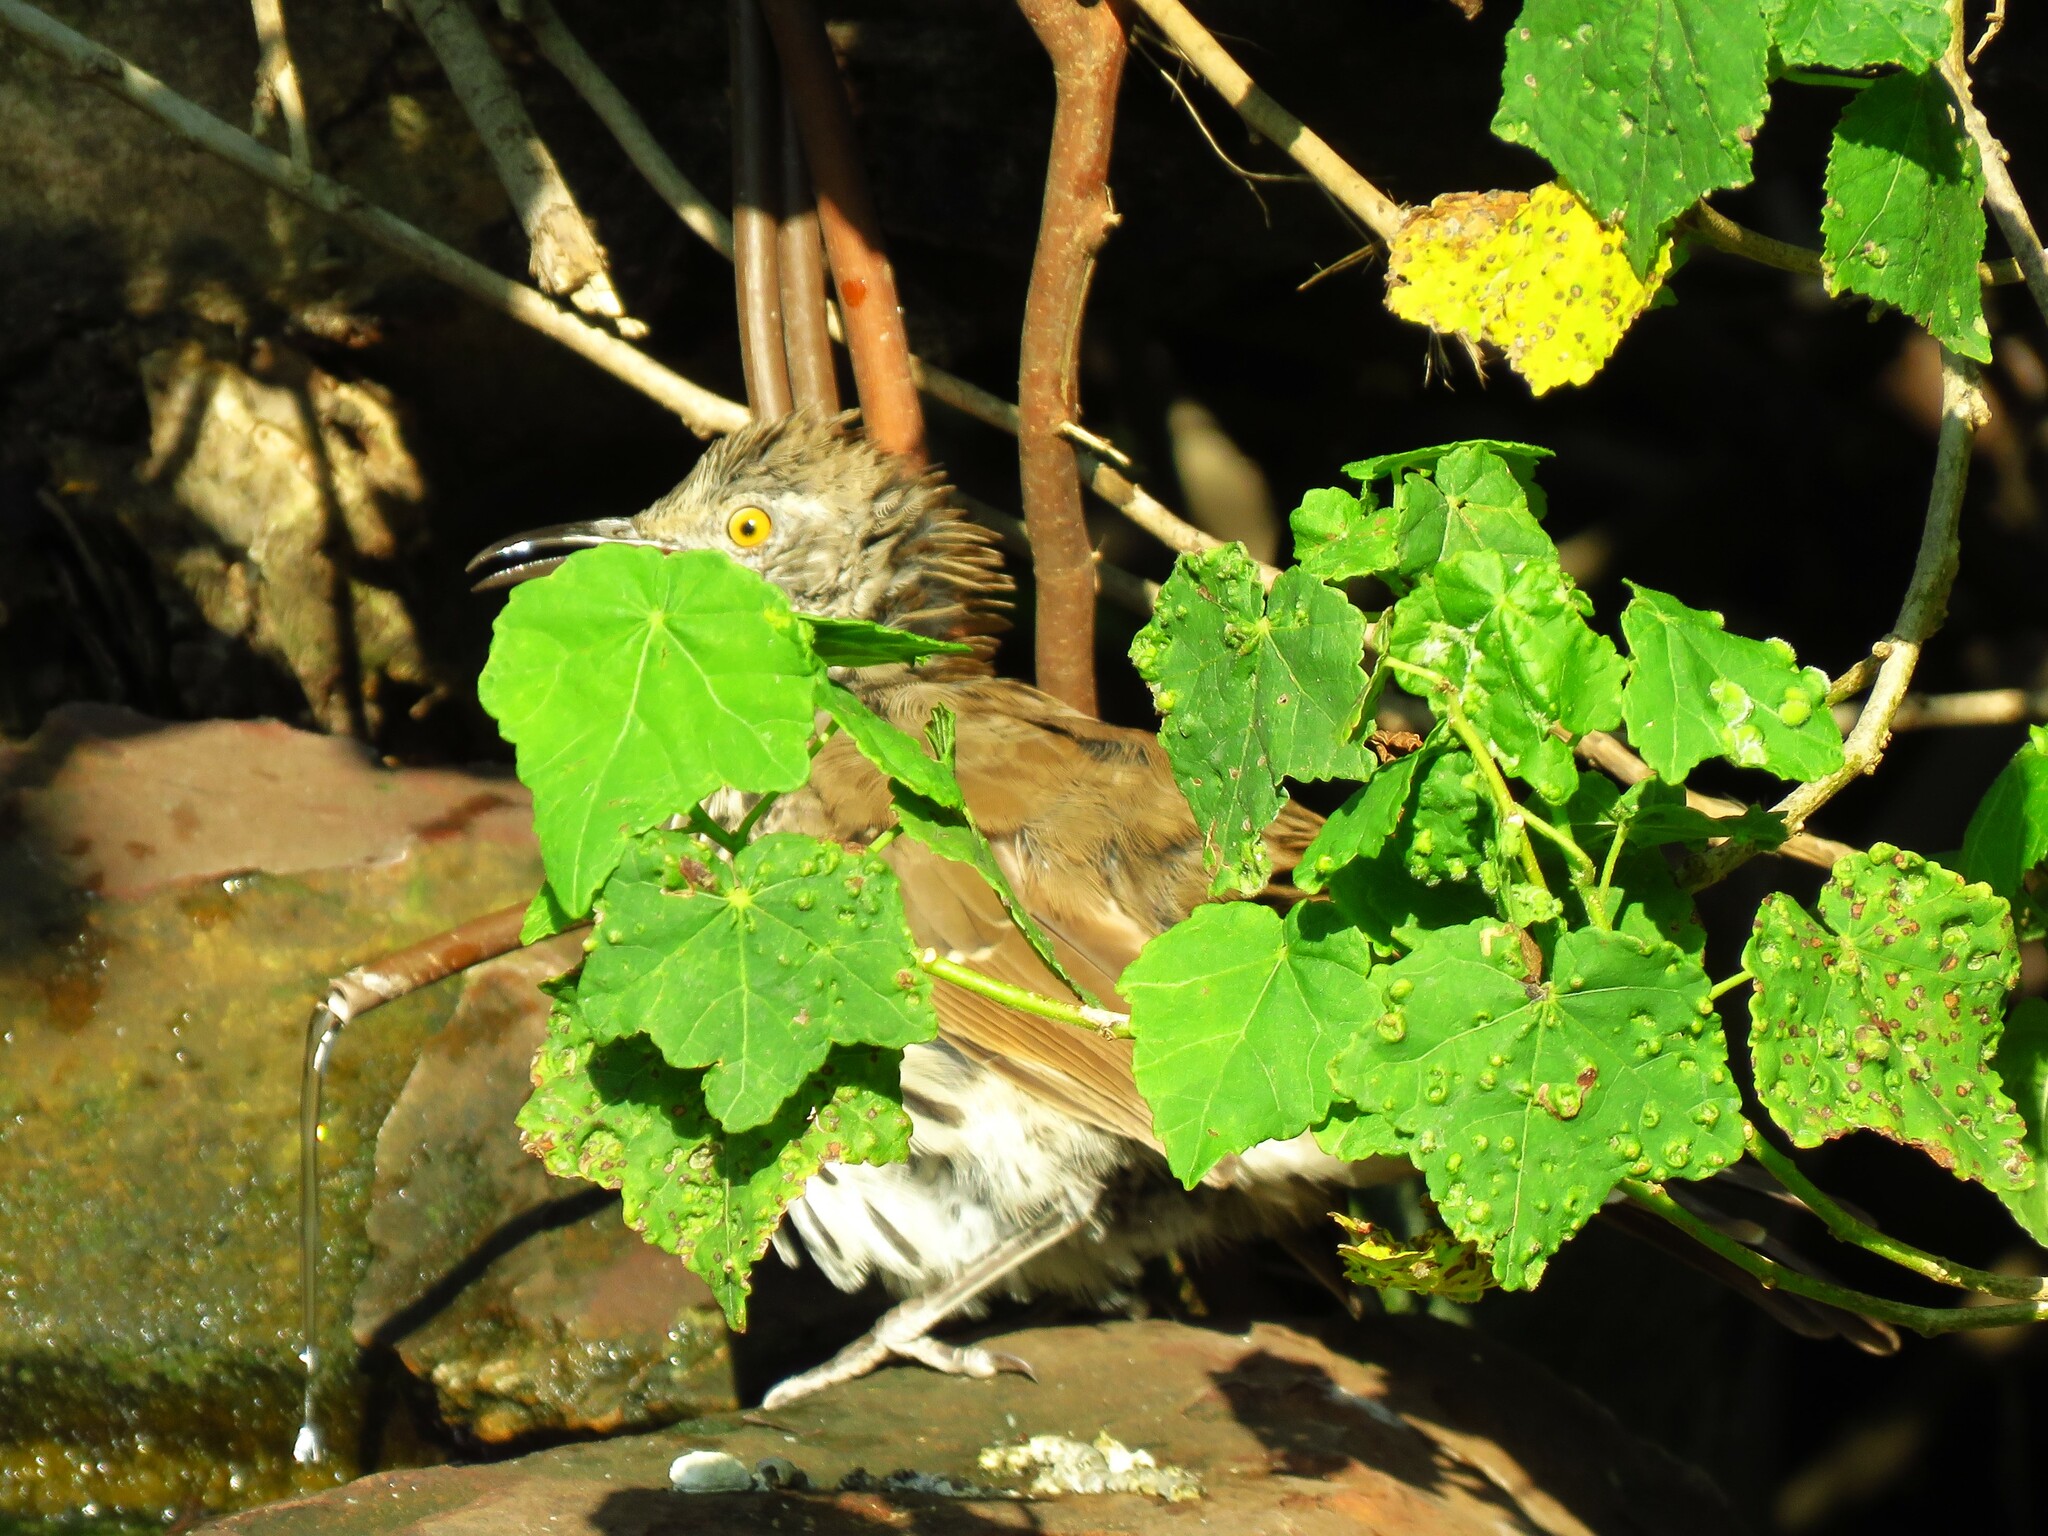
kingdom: Animalia
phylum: Chordata
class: Aves
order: Passeriformes
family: Mimidae
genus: Toxostoma
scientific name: Toxostoma longirostre
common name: Long-billed thrasher
